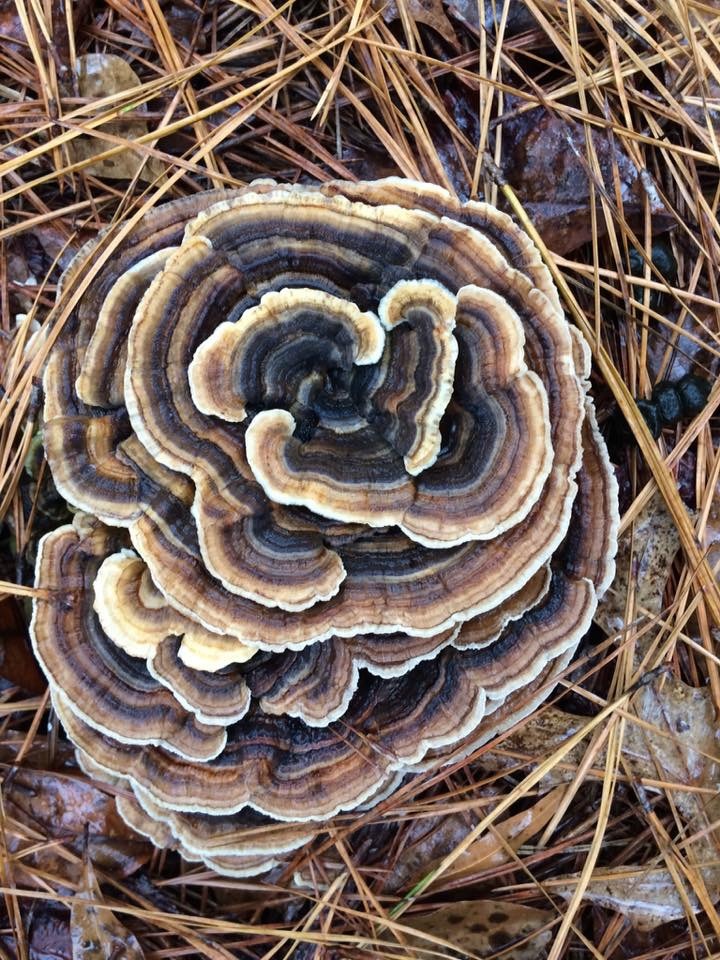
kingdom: Fungi
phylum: Basidiomycota
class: Agaricomycetes
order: Polyporales
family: Polyporaceae
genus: Trametes
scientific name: Trametes versicolor
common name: Turkeytail
